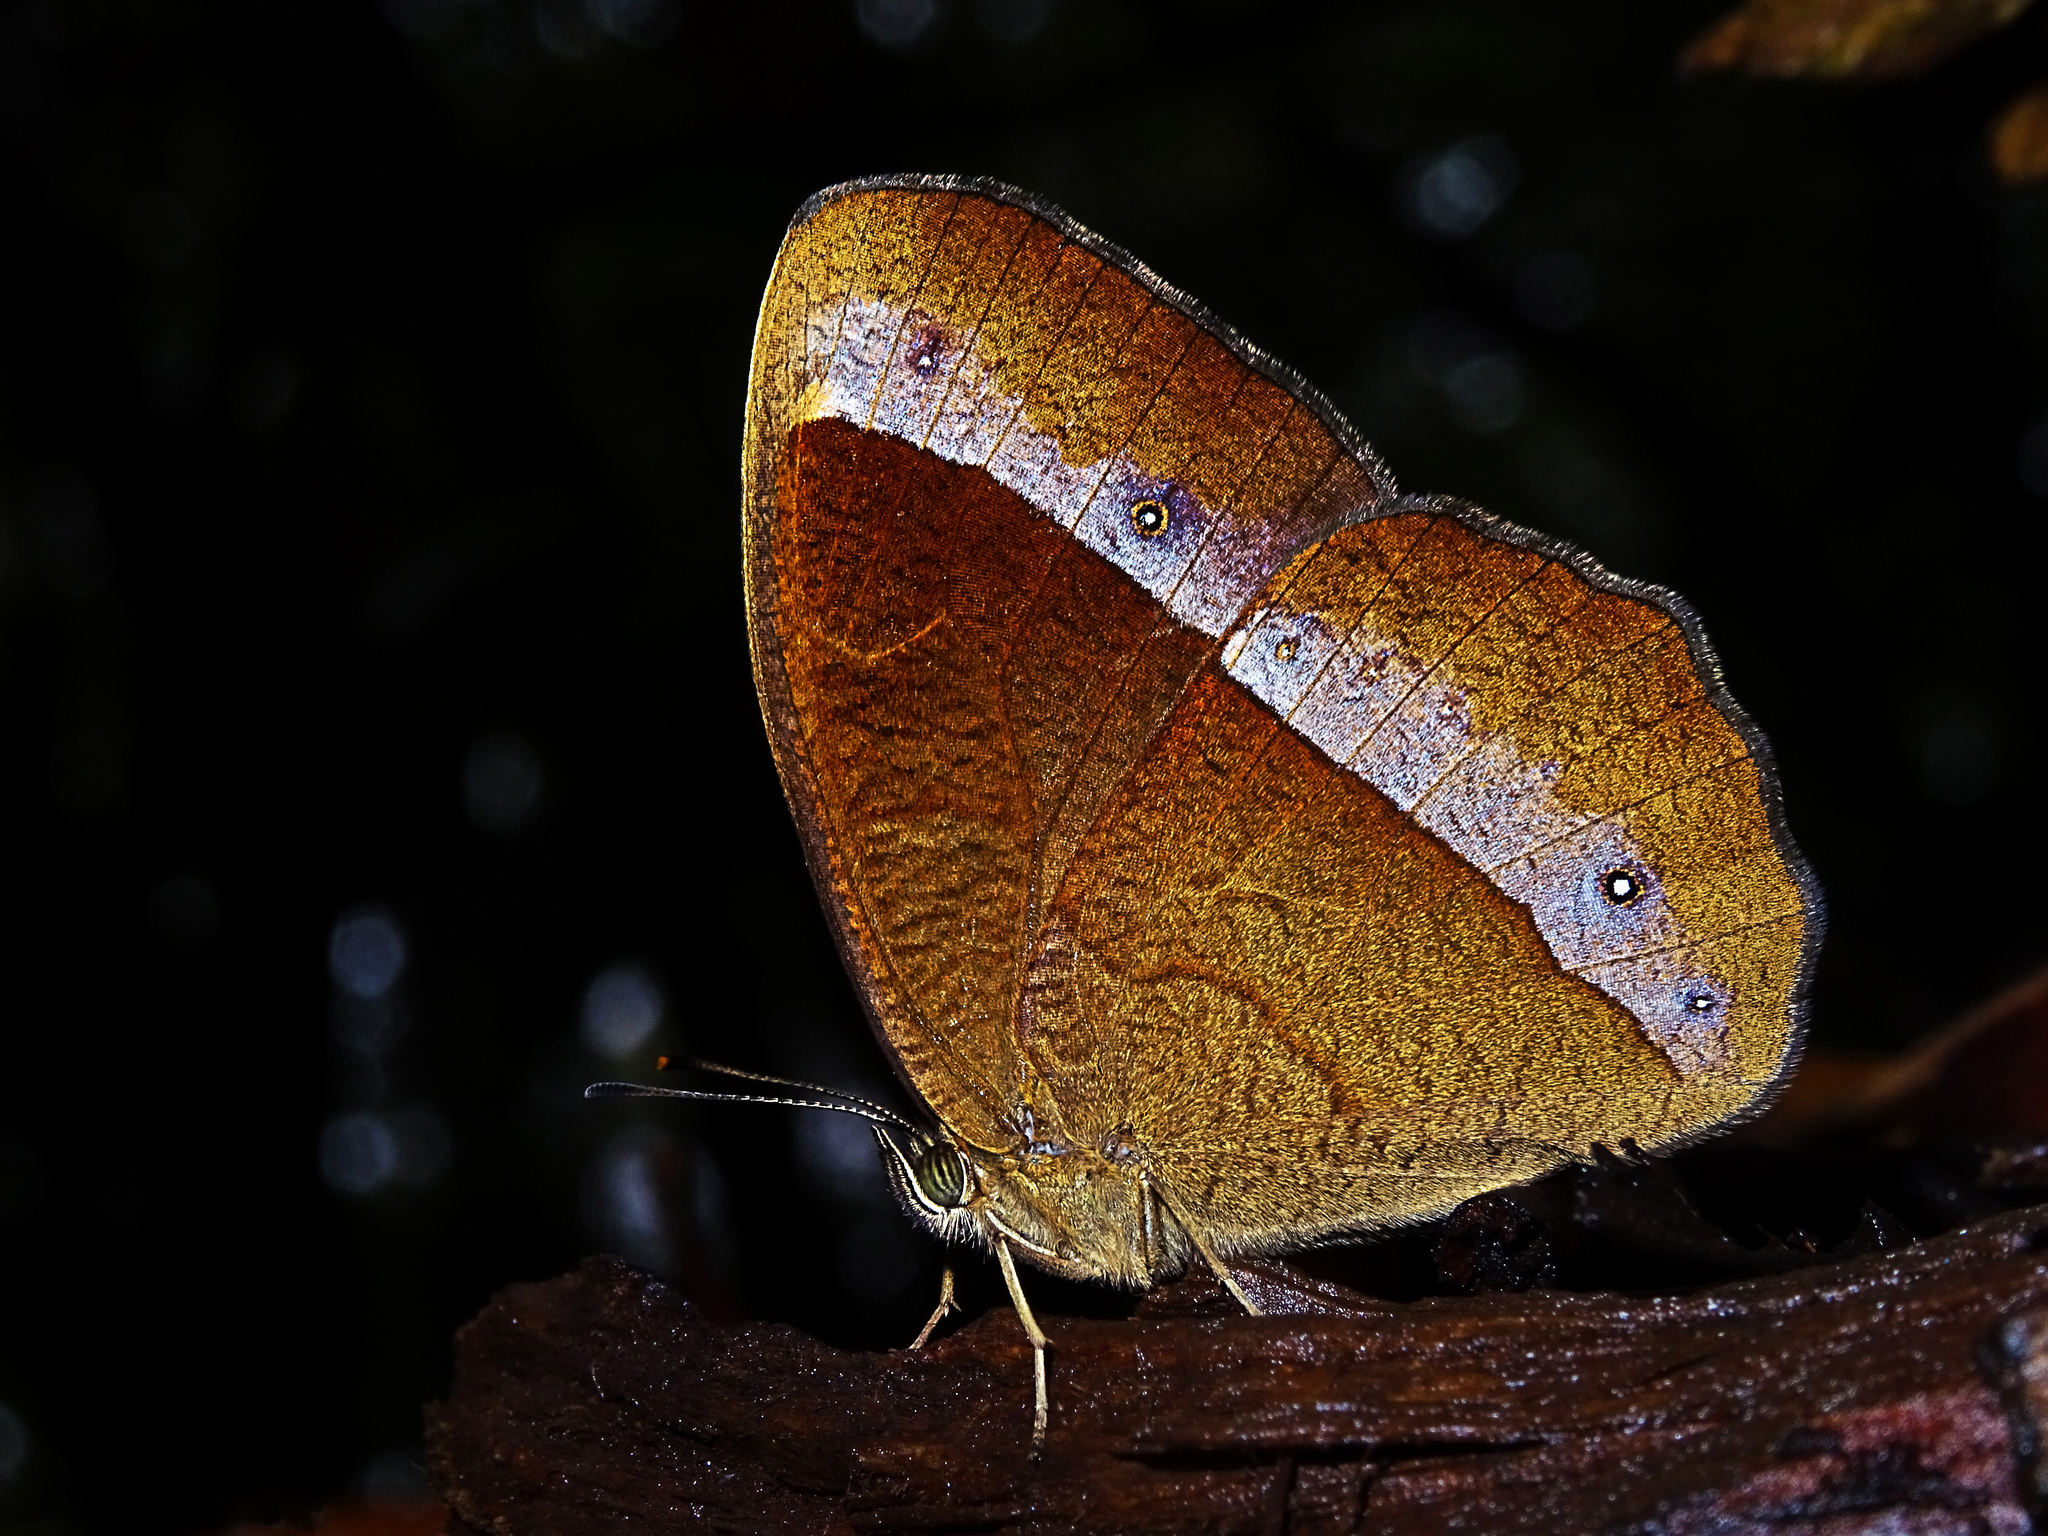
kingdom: Animalia
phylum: Arthropoda
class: Insecta
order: Lepidoptera
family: Nymphalidae
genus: Mycalesis
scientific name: Mycalesis Telinga adolphei
